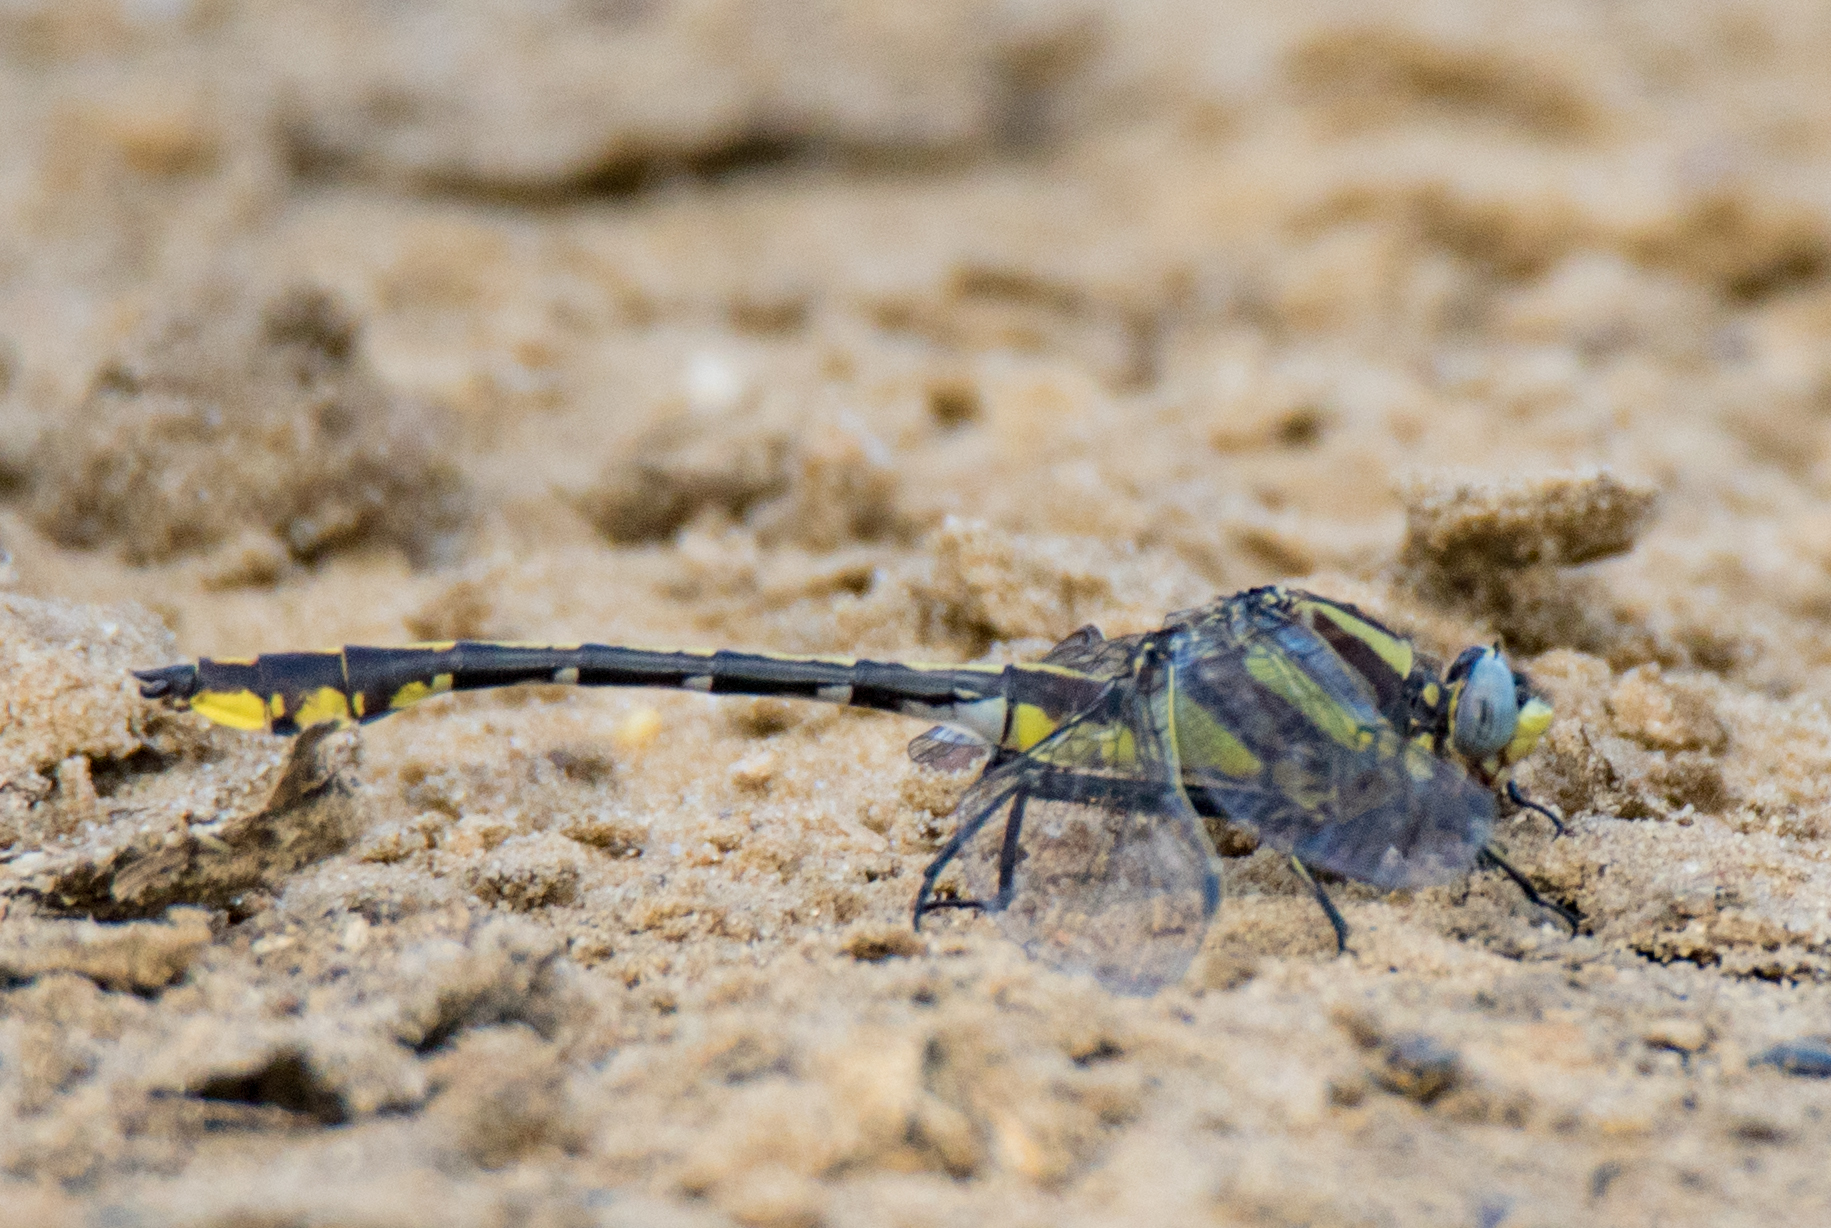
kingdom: Animalia
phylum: Arthropoda
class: Insecta
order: Odonata
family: Gomphidae
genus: Gomphurus
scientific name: Gomphurus externus
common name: Plains clubtail
